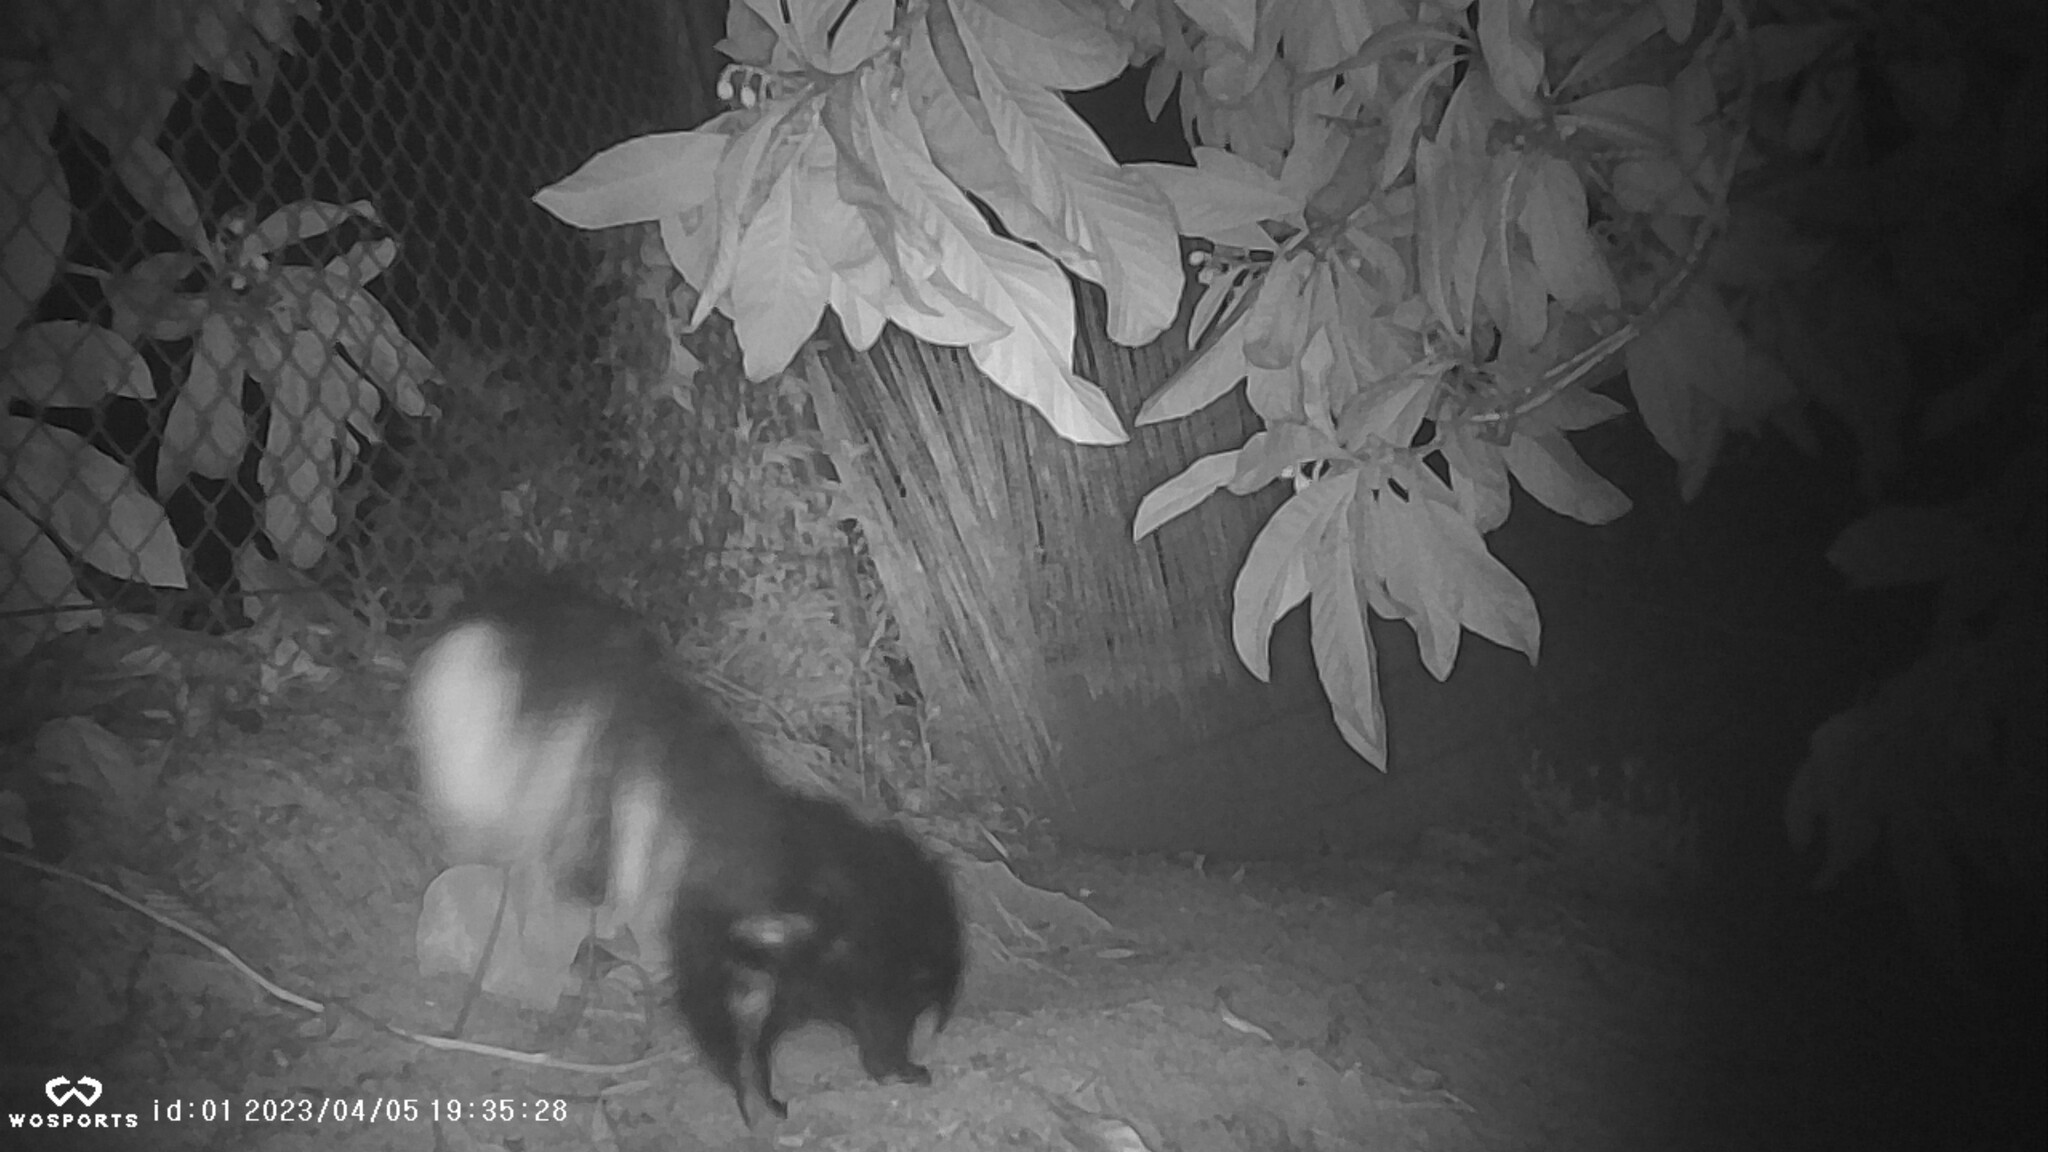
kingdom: Animalia
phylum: Chordata
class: Mammalia
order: Carnivora
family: Mephitidae
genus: Mephitis
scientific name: Mephitis mephitis
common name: Striped skunk
